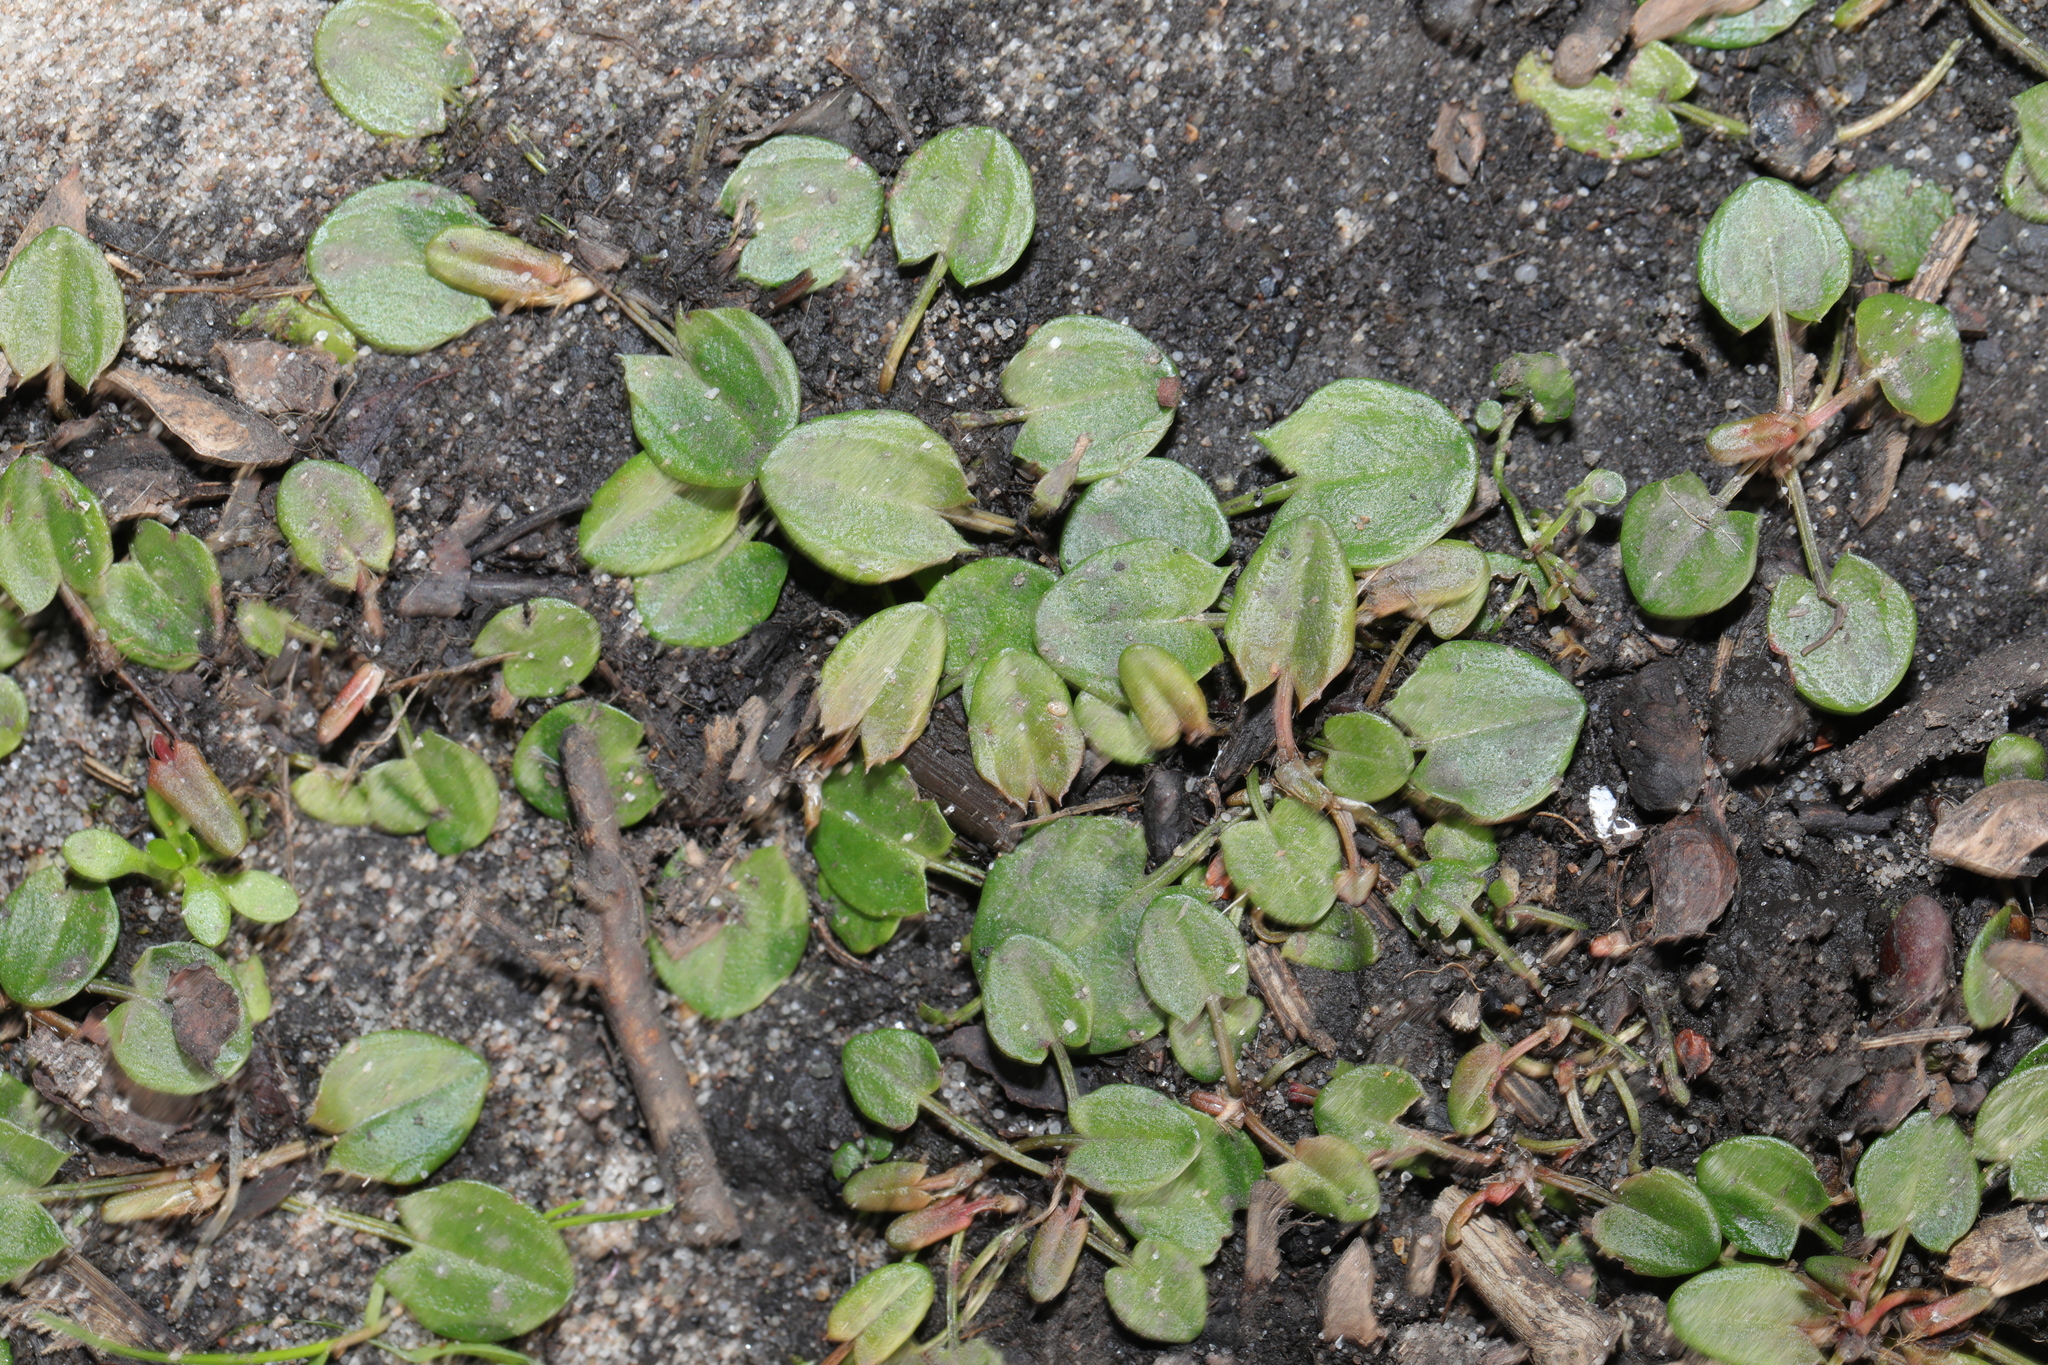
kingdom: Plantae
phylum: Tracheophyta
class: Magnoliopsida
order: Caryophyllales
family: Polygonaceae
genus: Rumex
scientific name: Rumex acetosa
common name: Garden sorrel
